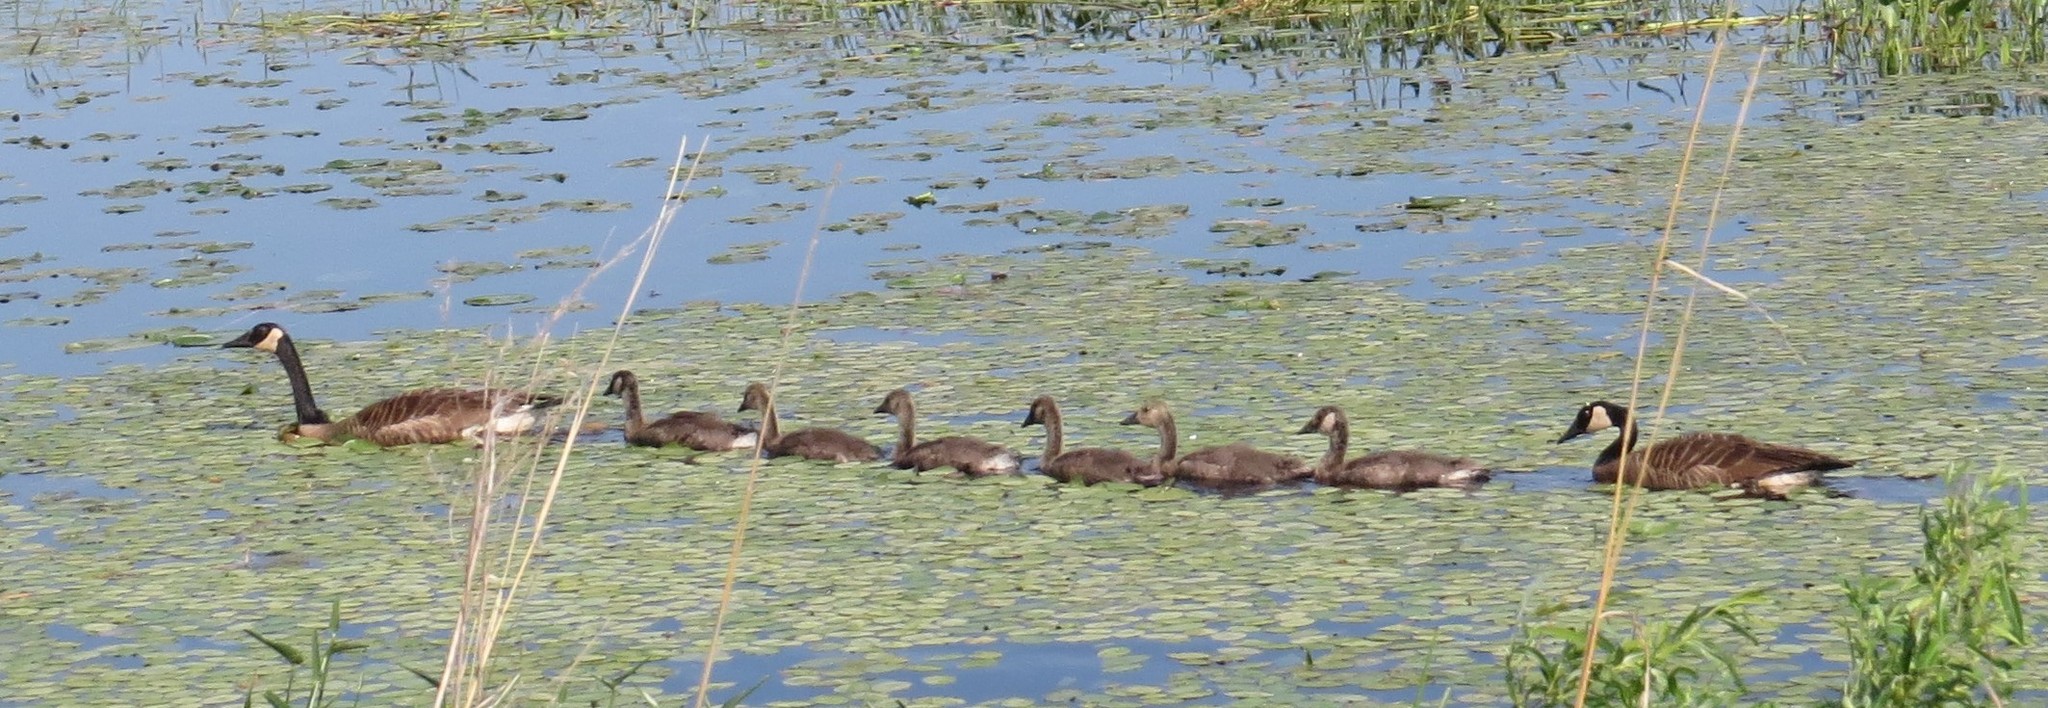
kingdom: Animalia
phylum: Chordata
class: Aves
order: Anseriformes
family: Anatidae
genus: Branta
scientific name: Branta canadensis
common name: Canada goose
